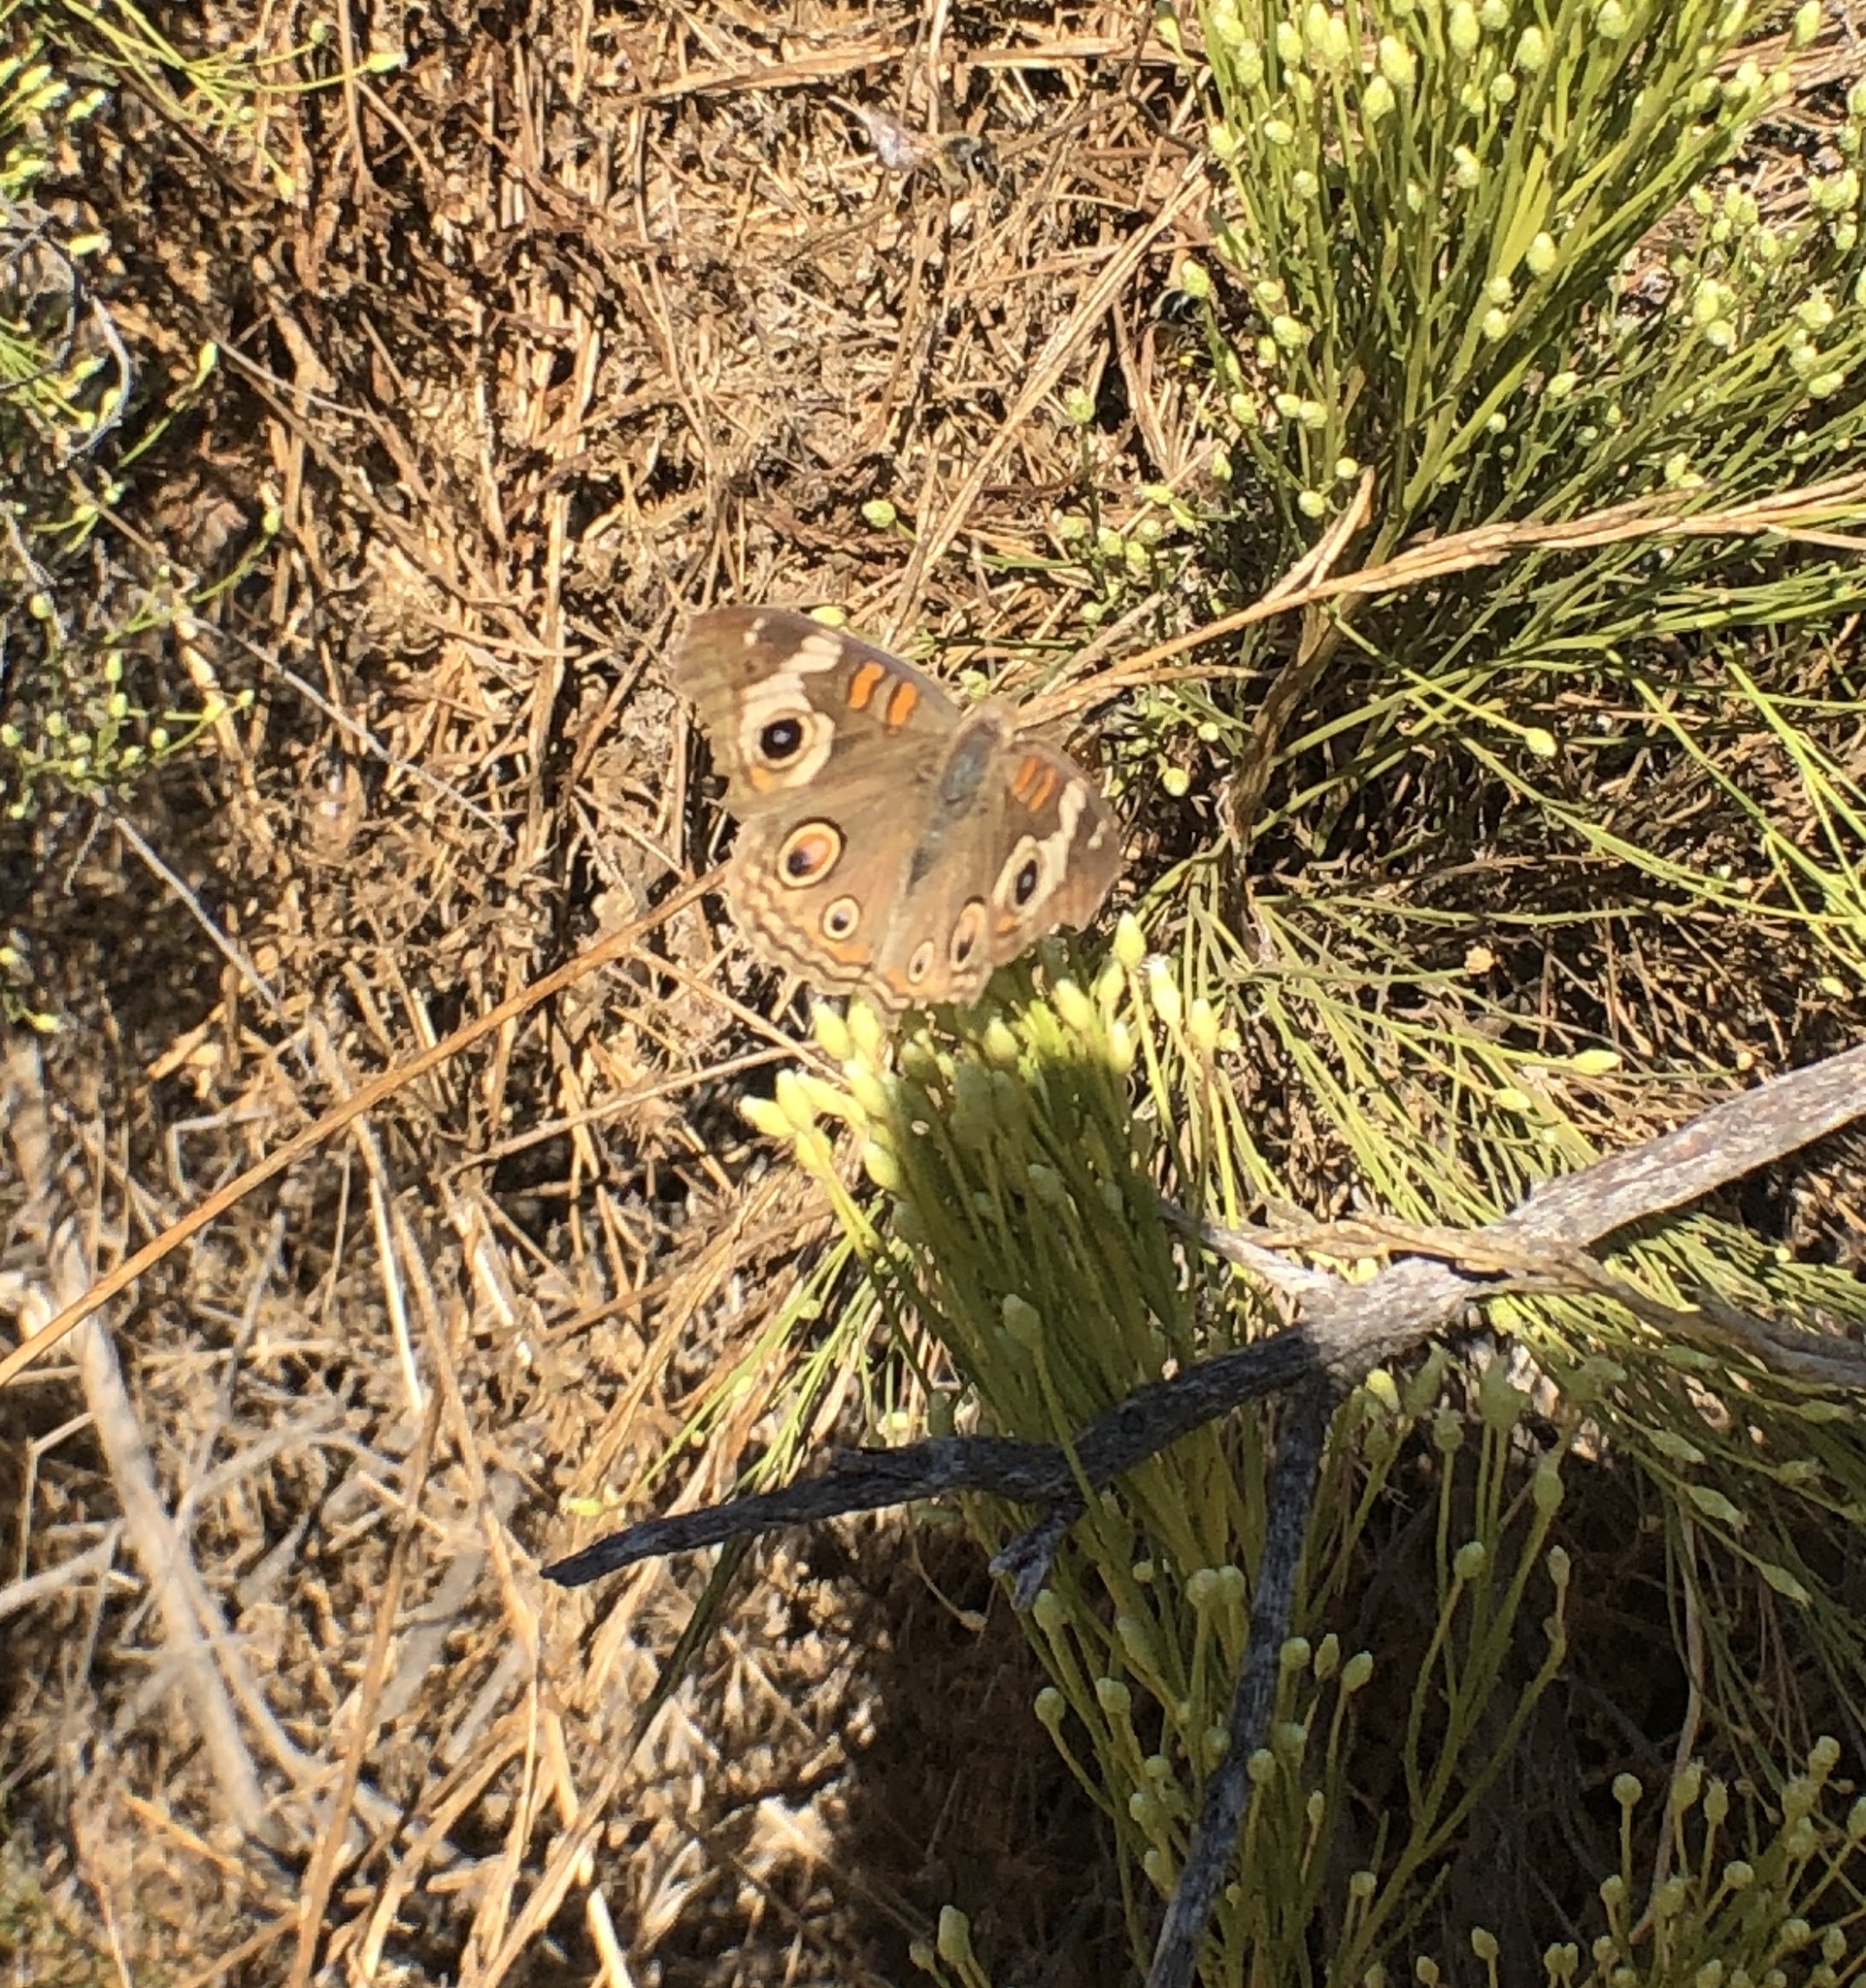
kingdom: Animalia
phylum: Arthropoda
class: Insecta
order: Lepidoptera
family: Nymphalidae
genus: Junonia
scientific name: Junonia grisea
